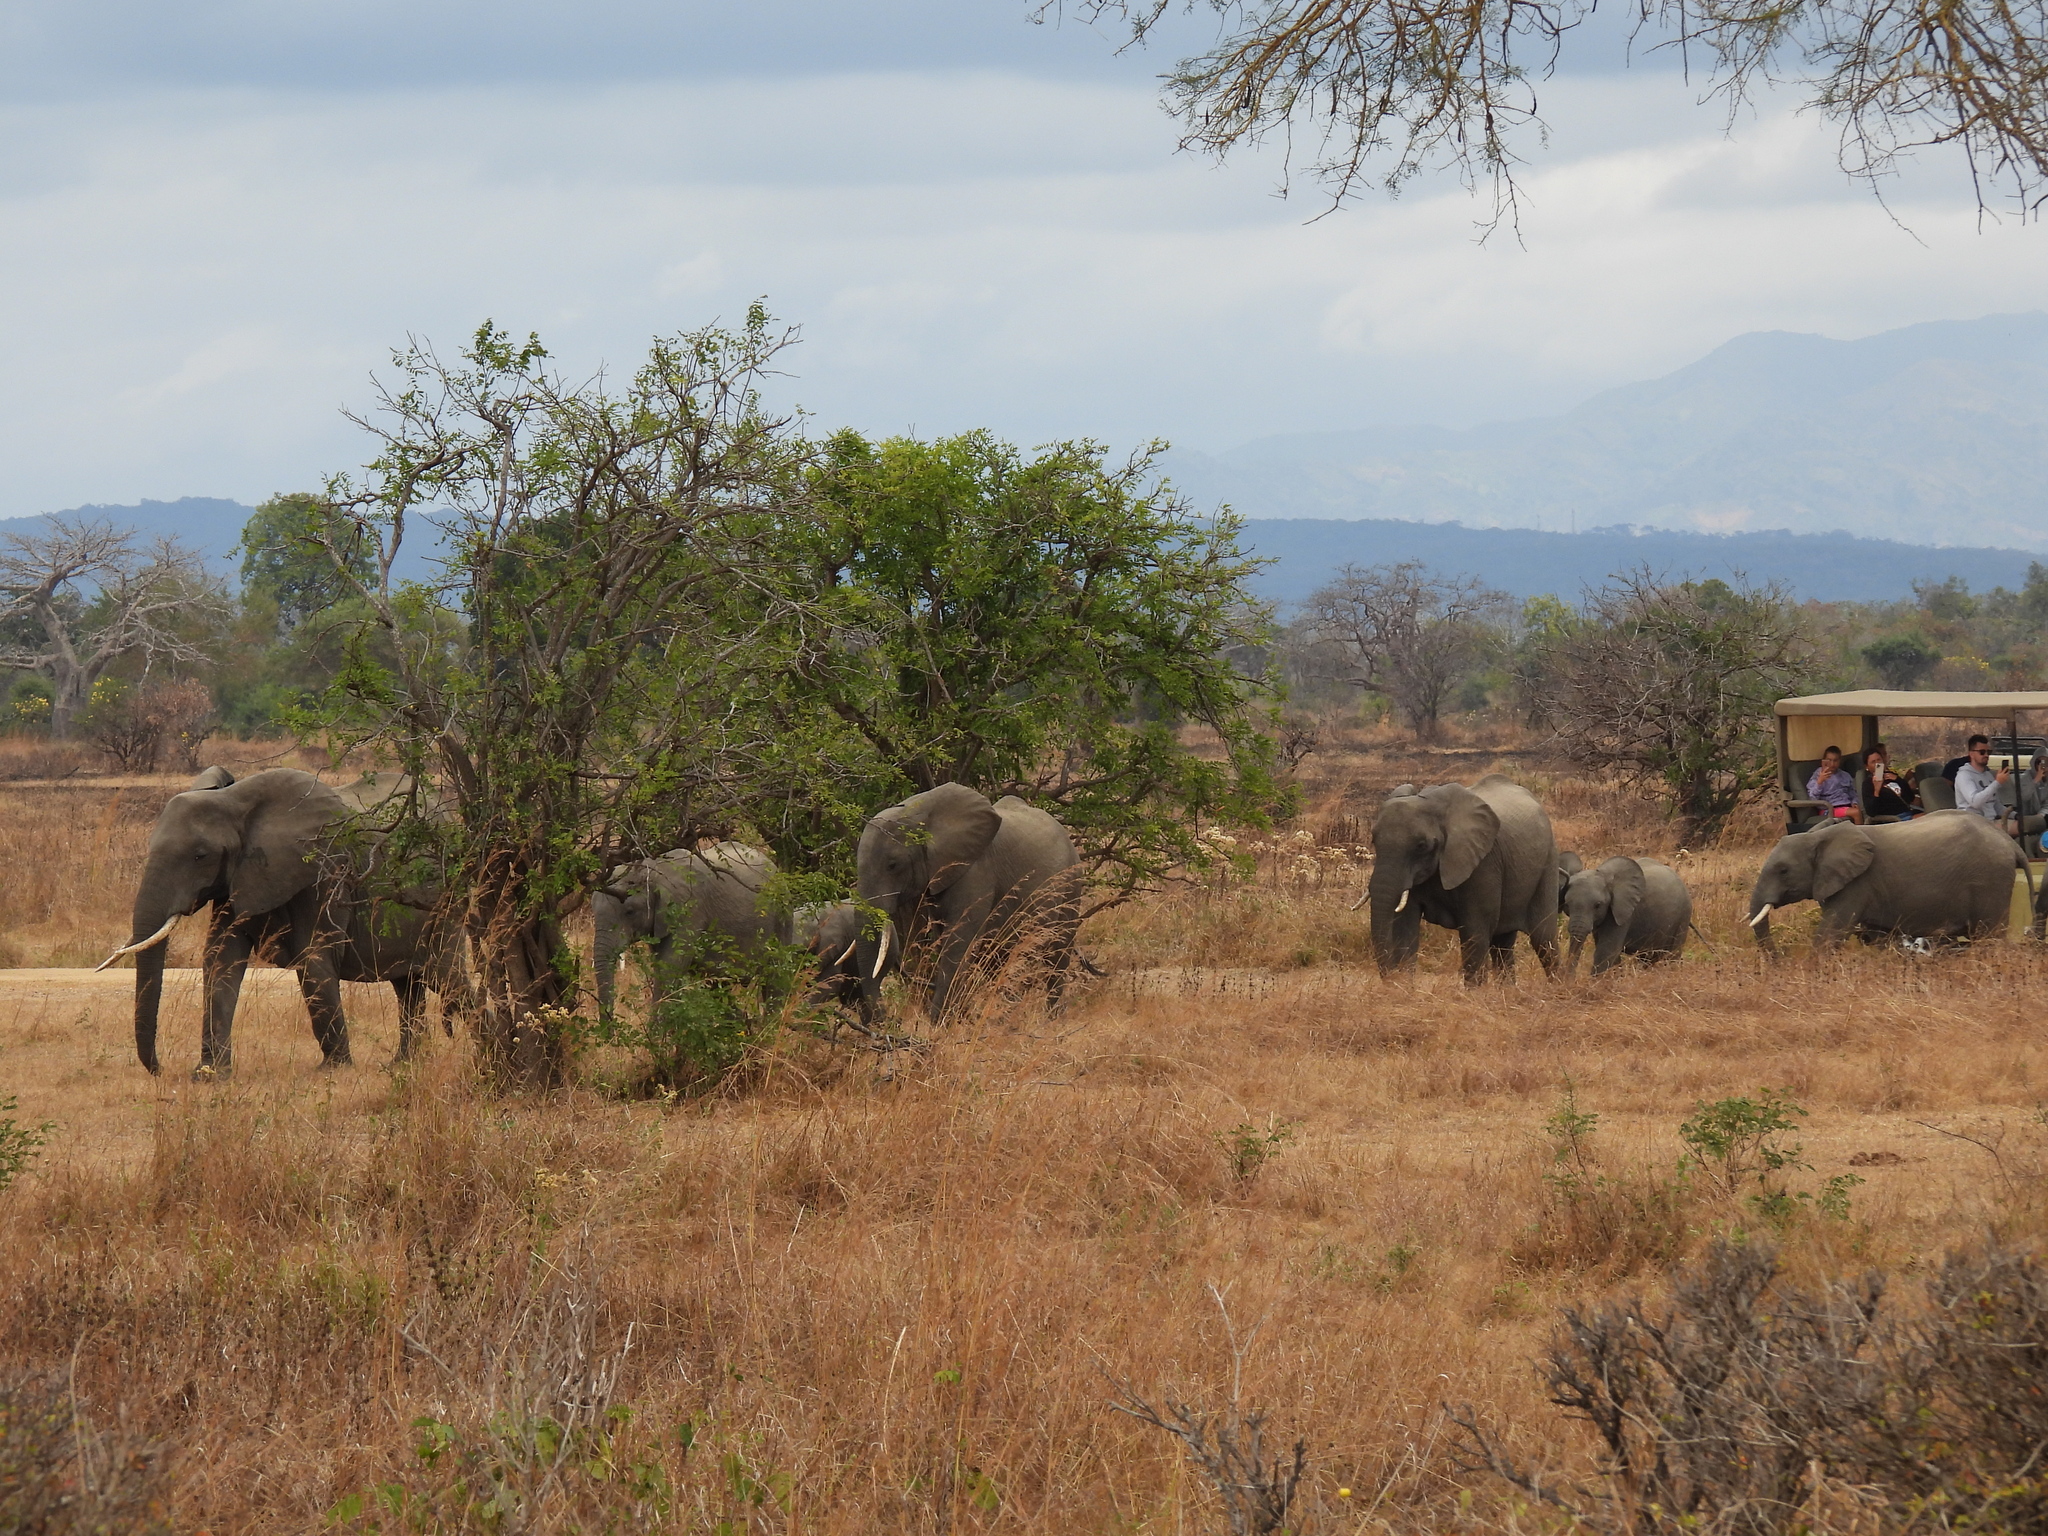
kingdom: Animalia
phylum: Chordata
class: Mammalia
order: Proboscidea
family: Elephantidae
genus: Loxodonta
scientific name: Loxodonta africana
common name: African elephant
